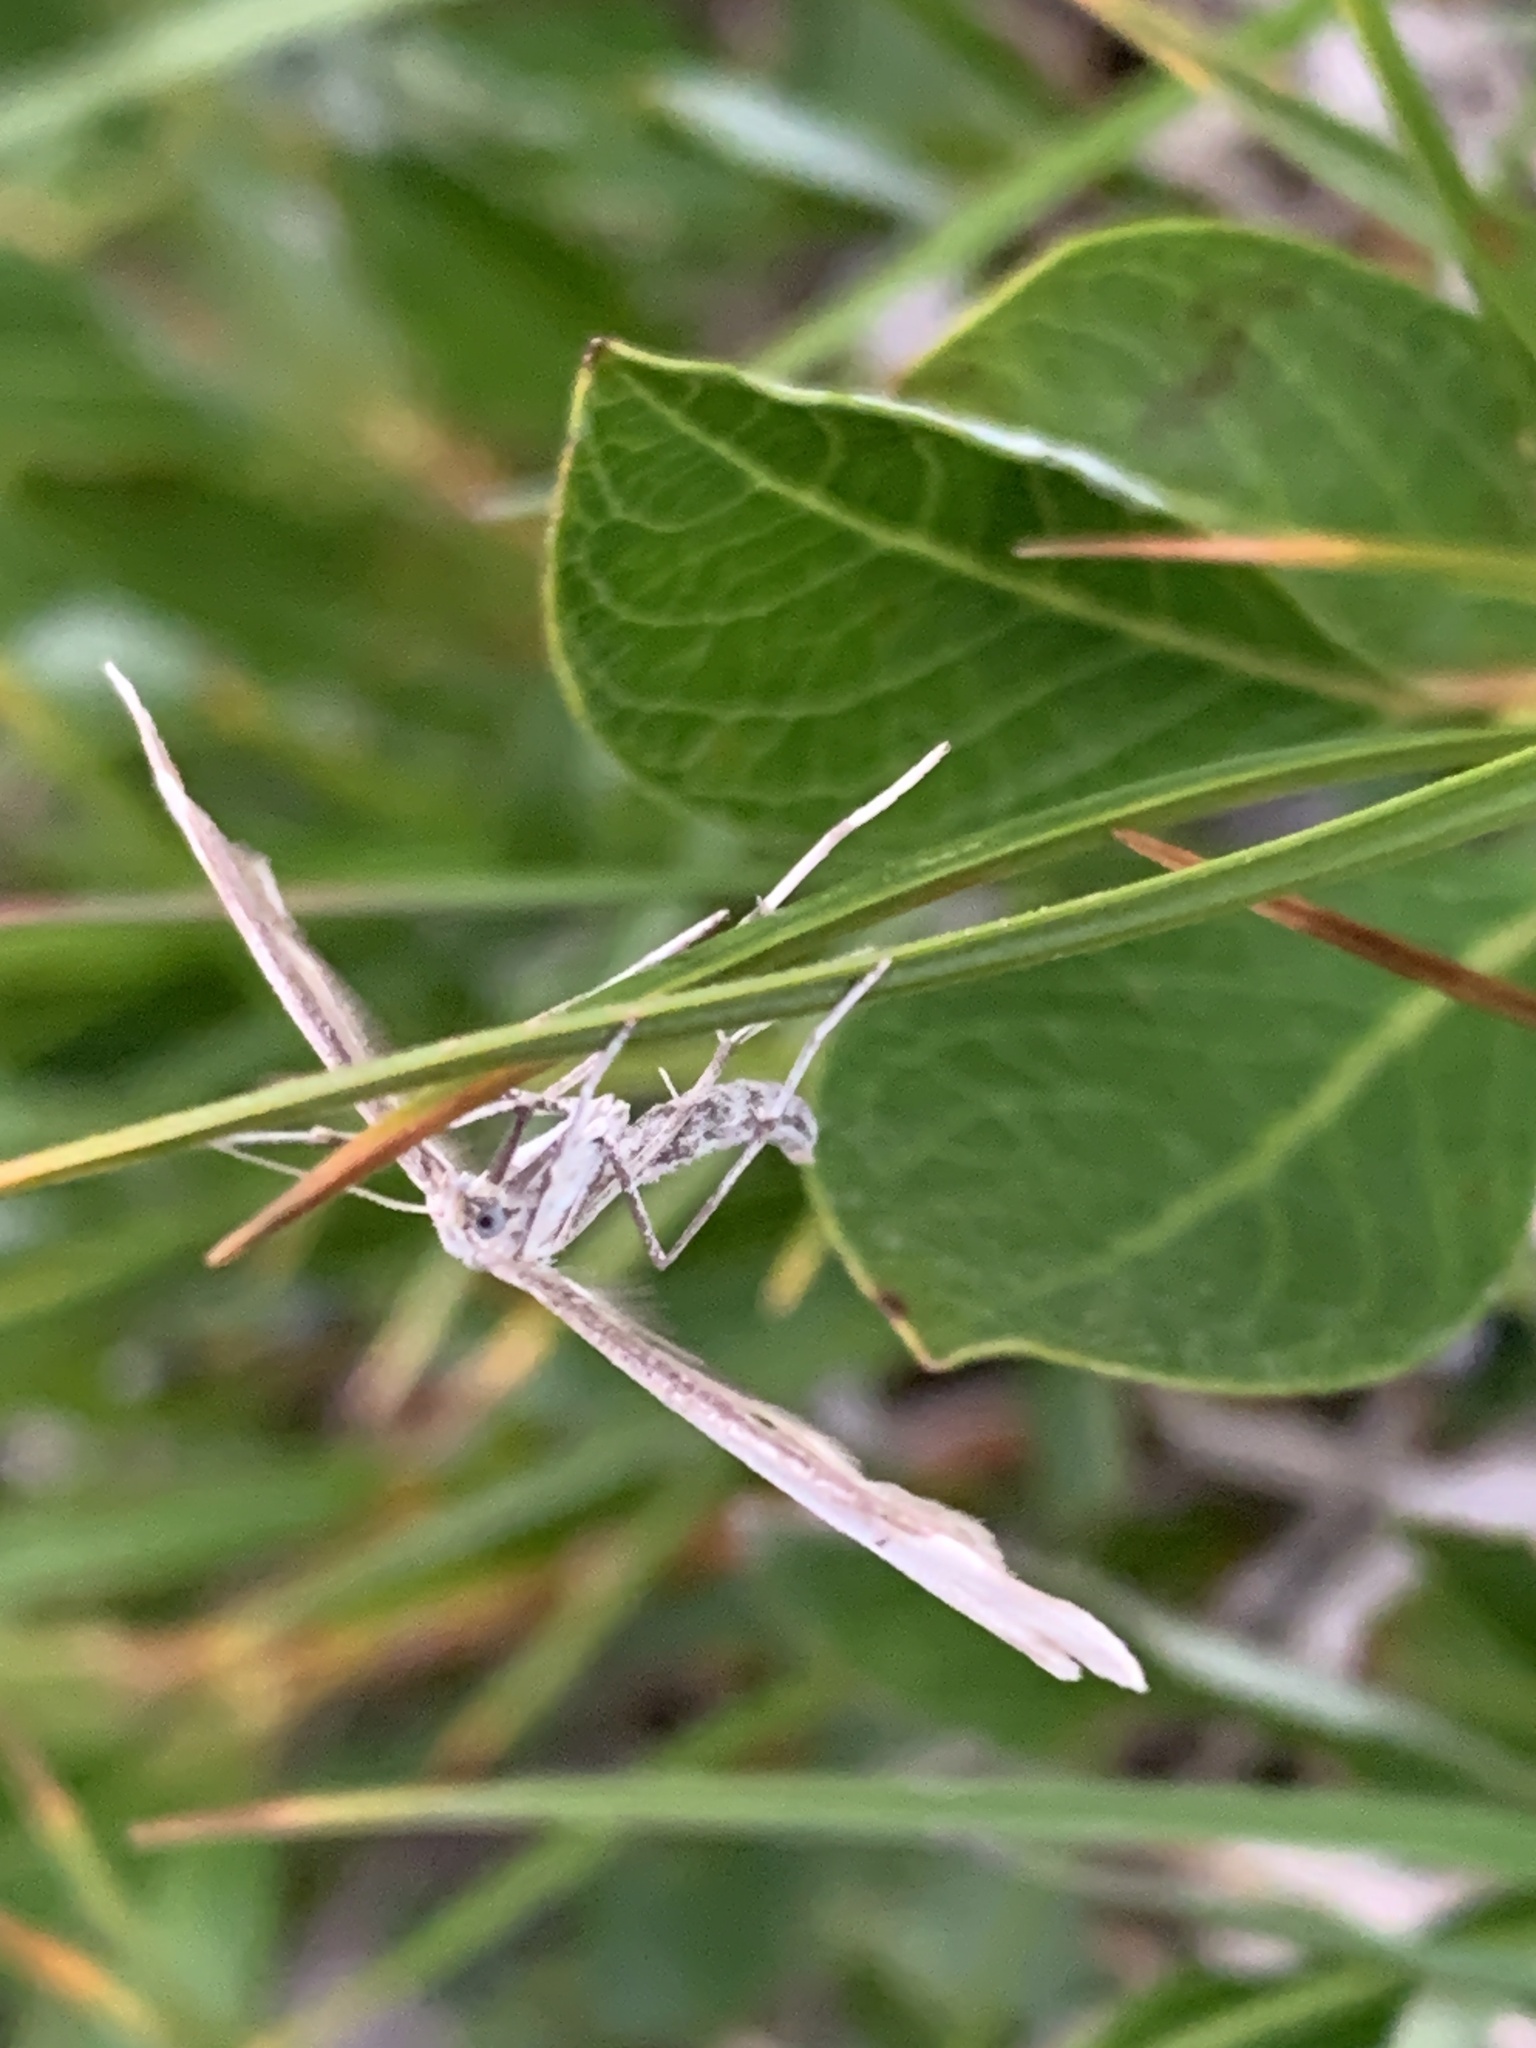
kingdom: Animalia
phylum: Arthropoda
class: Insecta
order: Lepidoptera
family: Pterophoridae
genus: Gillmeria
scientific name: Gillmeria albertae
